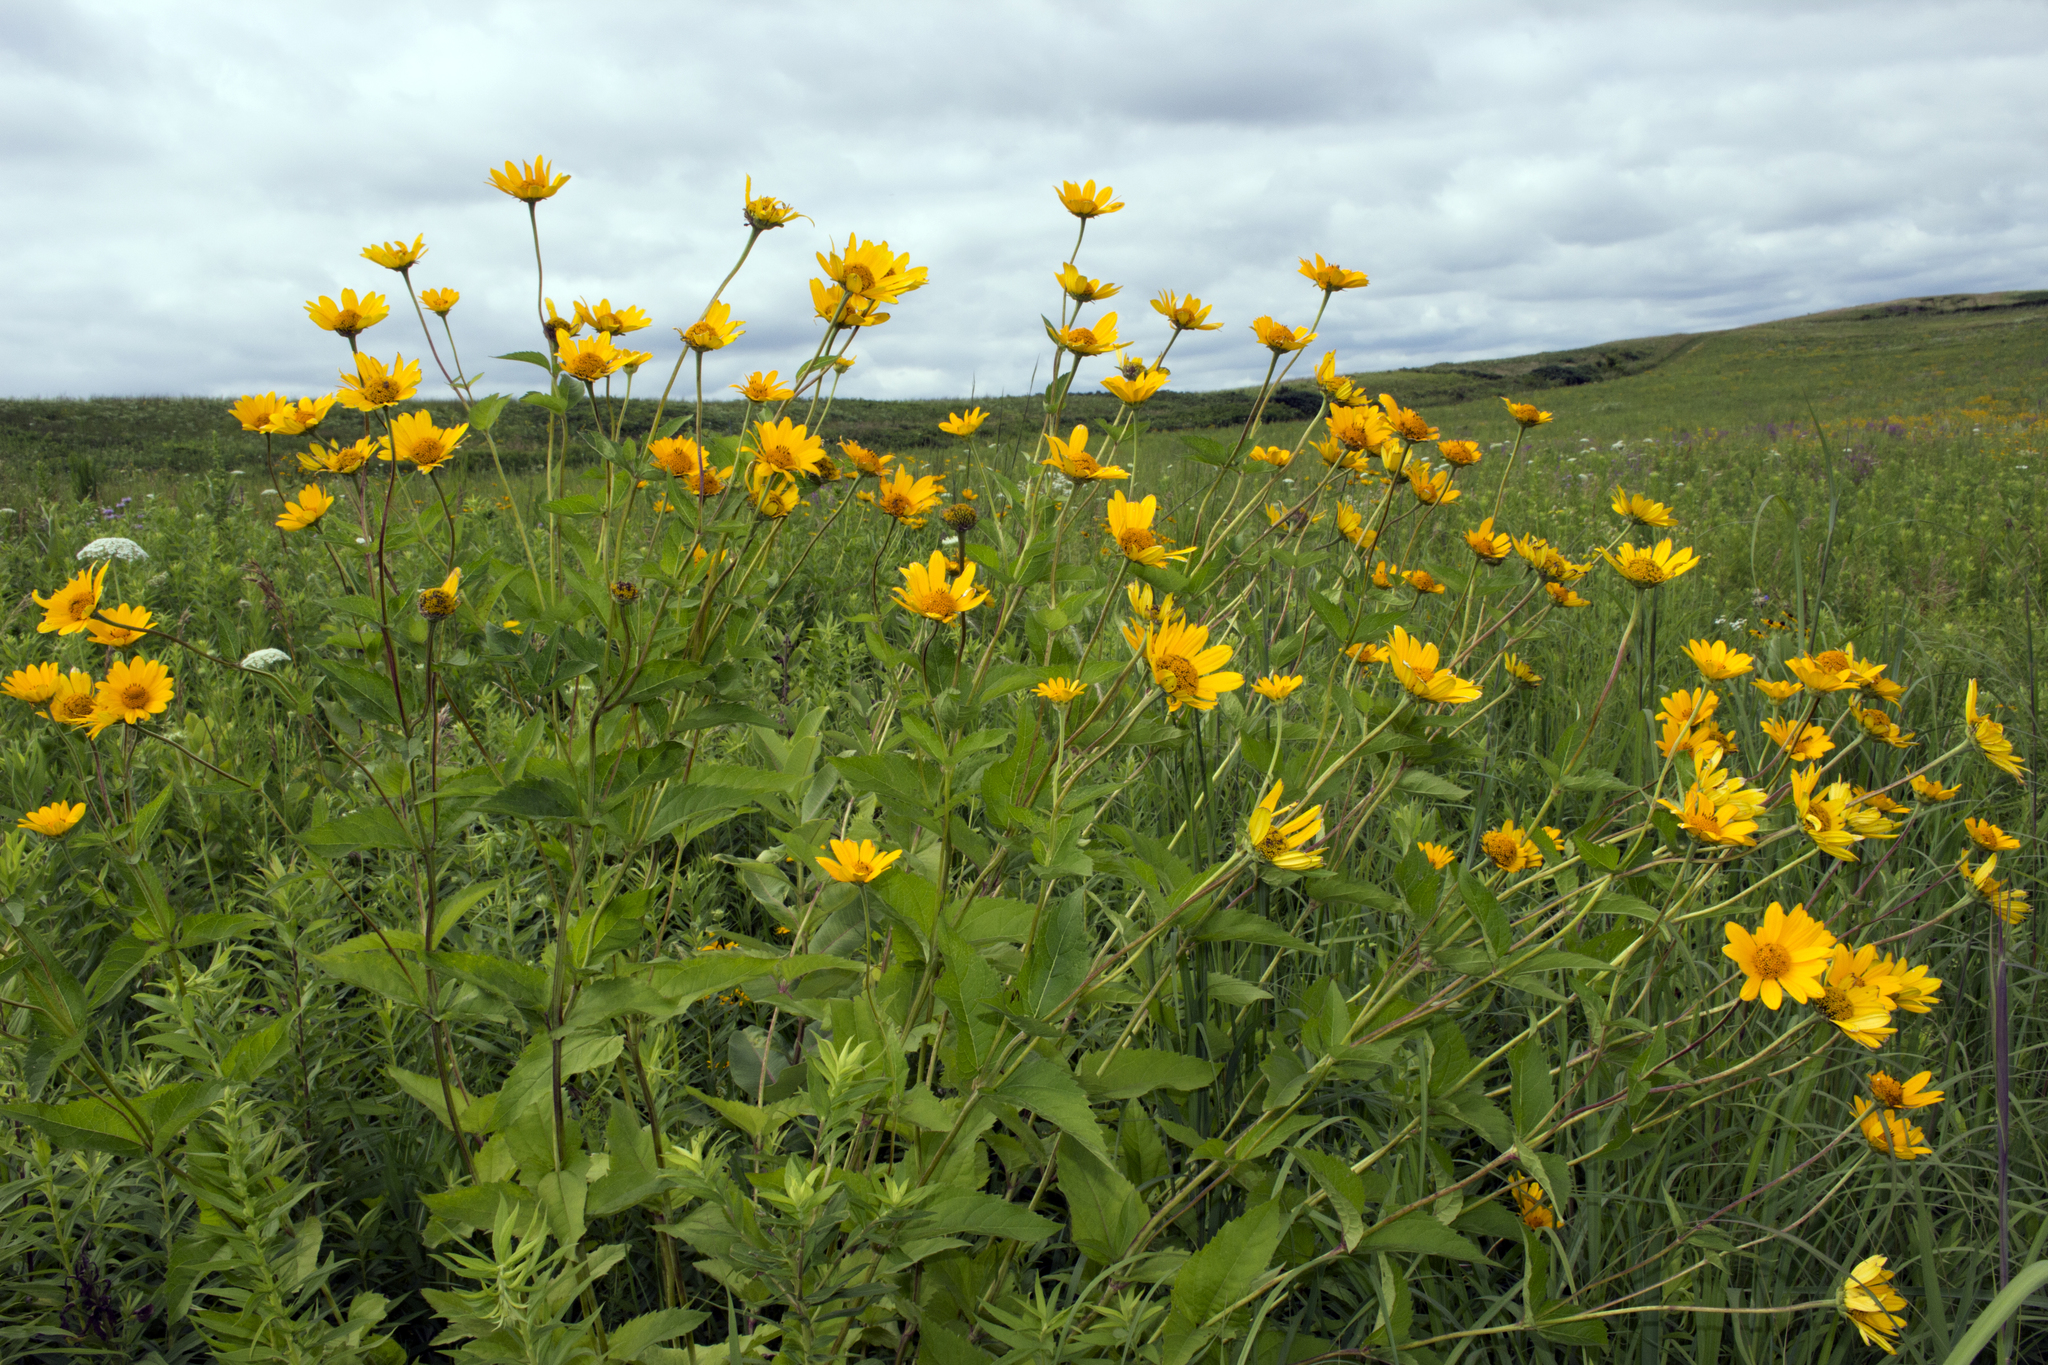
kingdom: Plantae
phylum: Tracheophyta
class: Magnoliopsida
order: Asterales
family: Asteraceae
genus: Heliopsis
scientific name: Heliopsis helianthoides
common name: False sunflower
